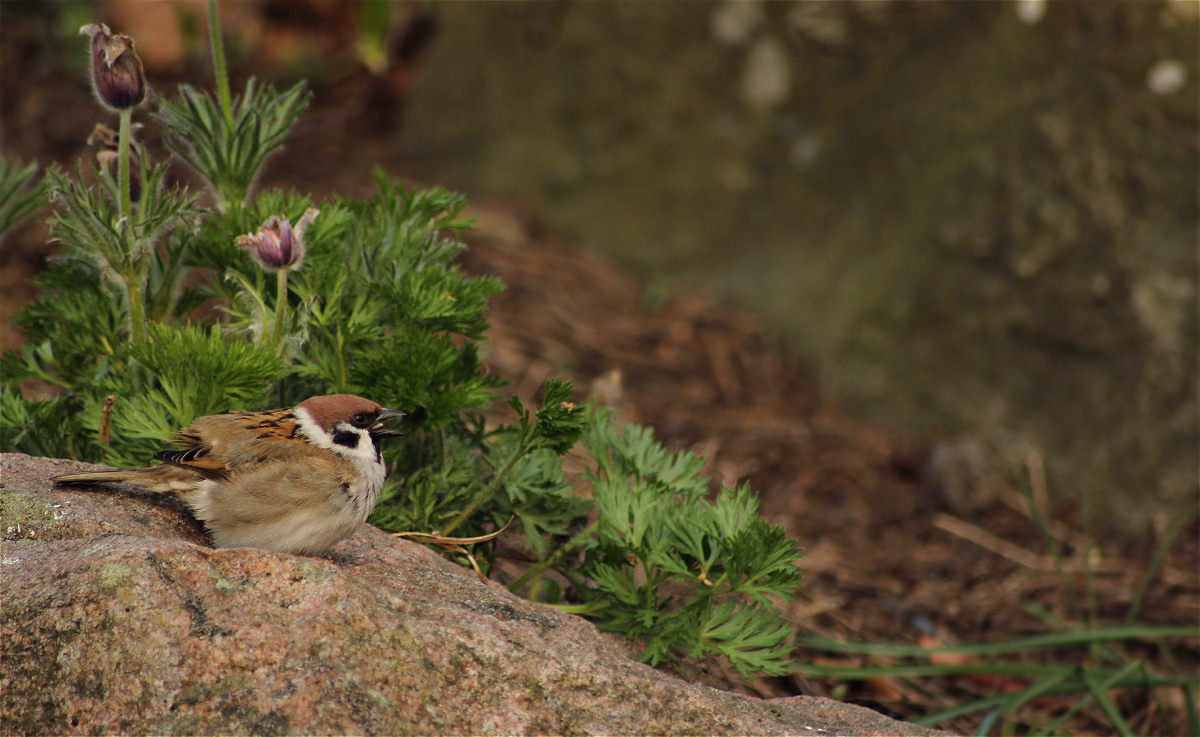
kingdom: Animalia
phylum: Chordata
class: Aves
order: Passeriformes
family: Passeridae
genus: Passer
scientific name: Passer montanus
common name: Eurasian tree sparrow
